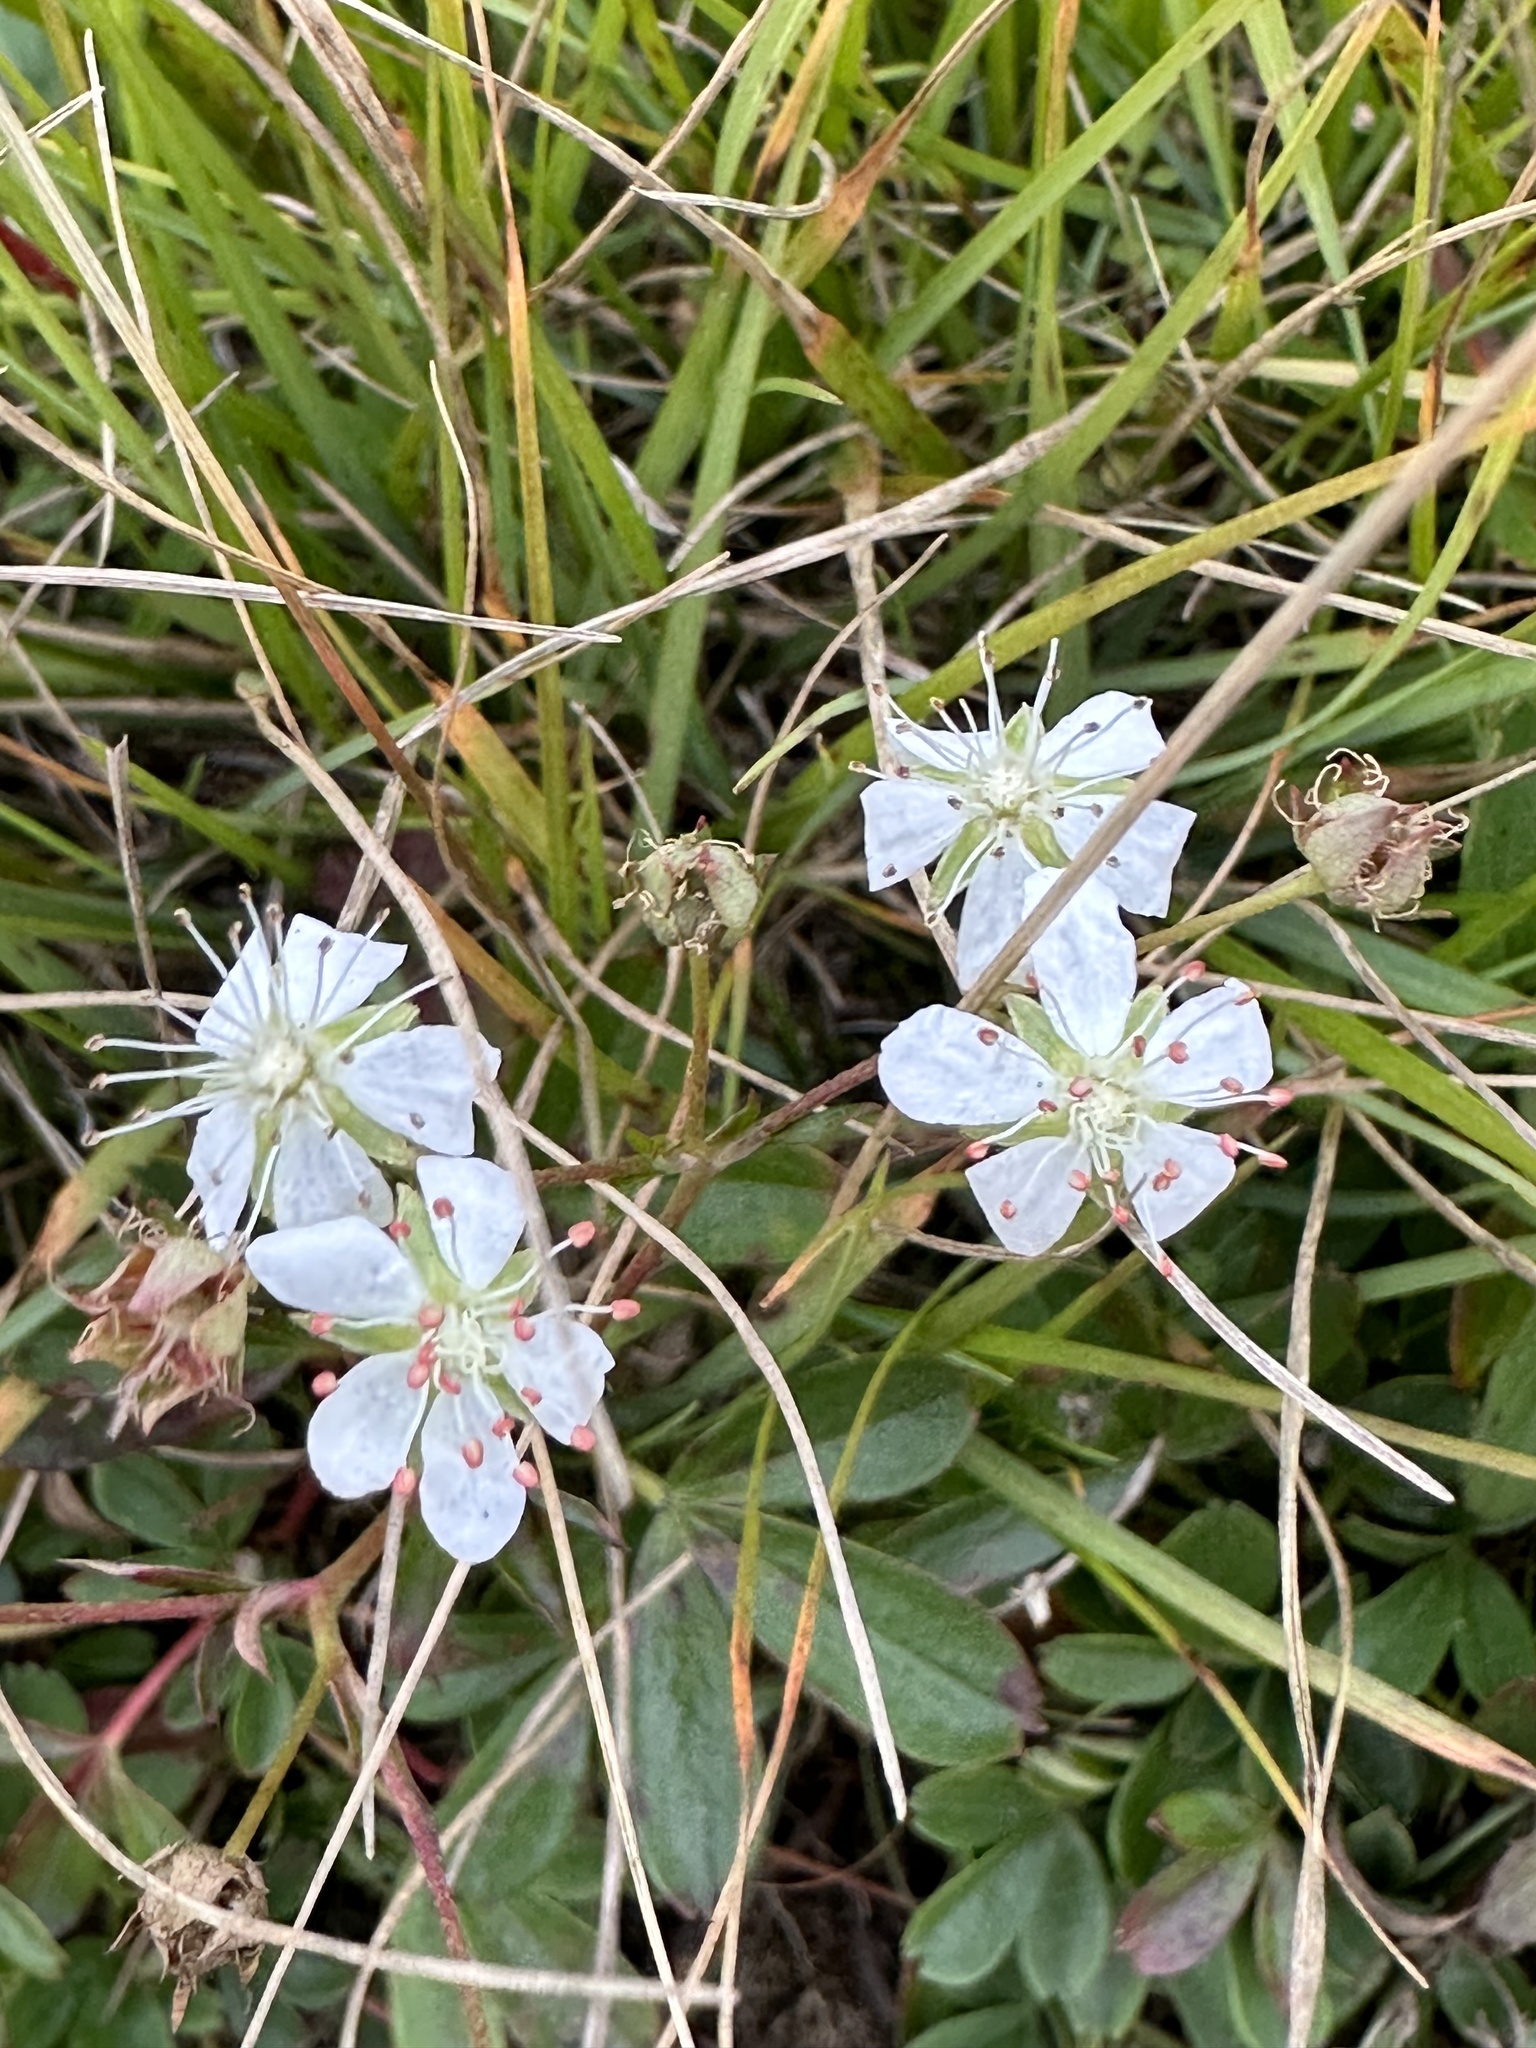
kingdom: Plantae
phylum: Tracheophyta
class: Magnoliopsida
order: Rosales
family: Rosaceae
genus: Sibbaldia
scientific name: Sibbaldia tridentata
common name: Three-toothed cinquefoil
